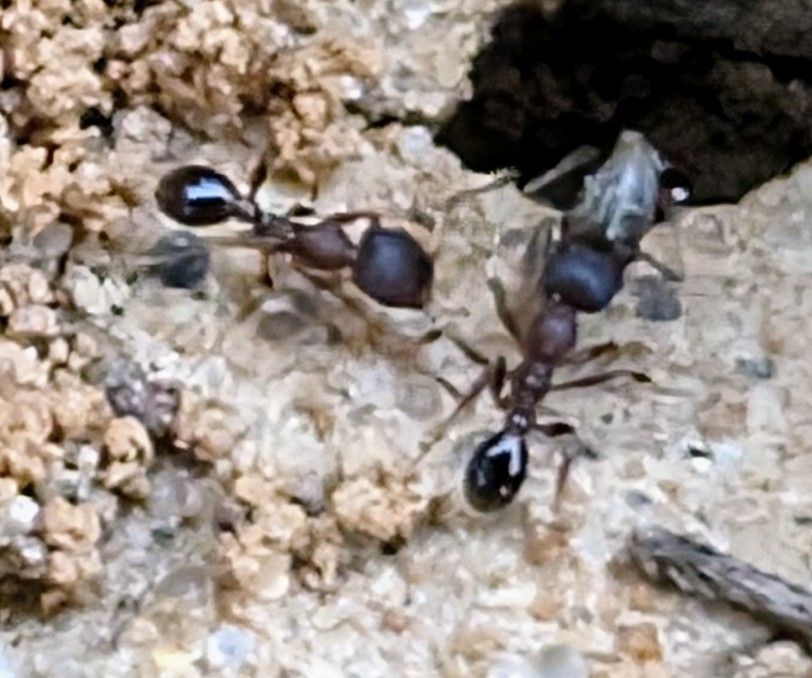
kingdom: Animalia
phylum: Arthropoda
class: Insecta
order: Hymenoptera
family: Formicidae
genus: Pheidole
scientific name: Pheidole pilifera
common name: Hairy big-headed ant
